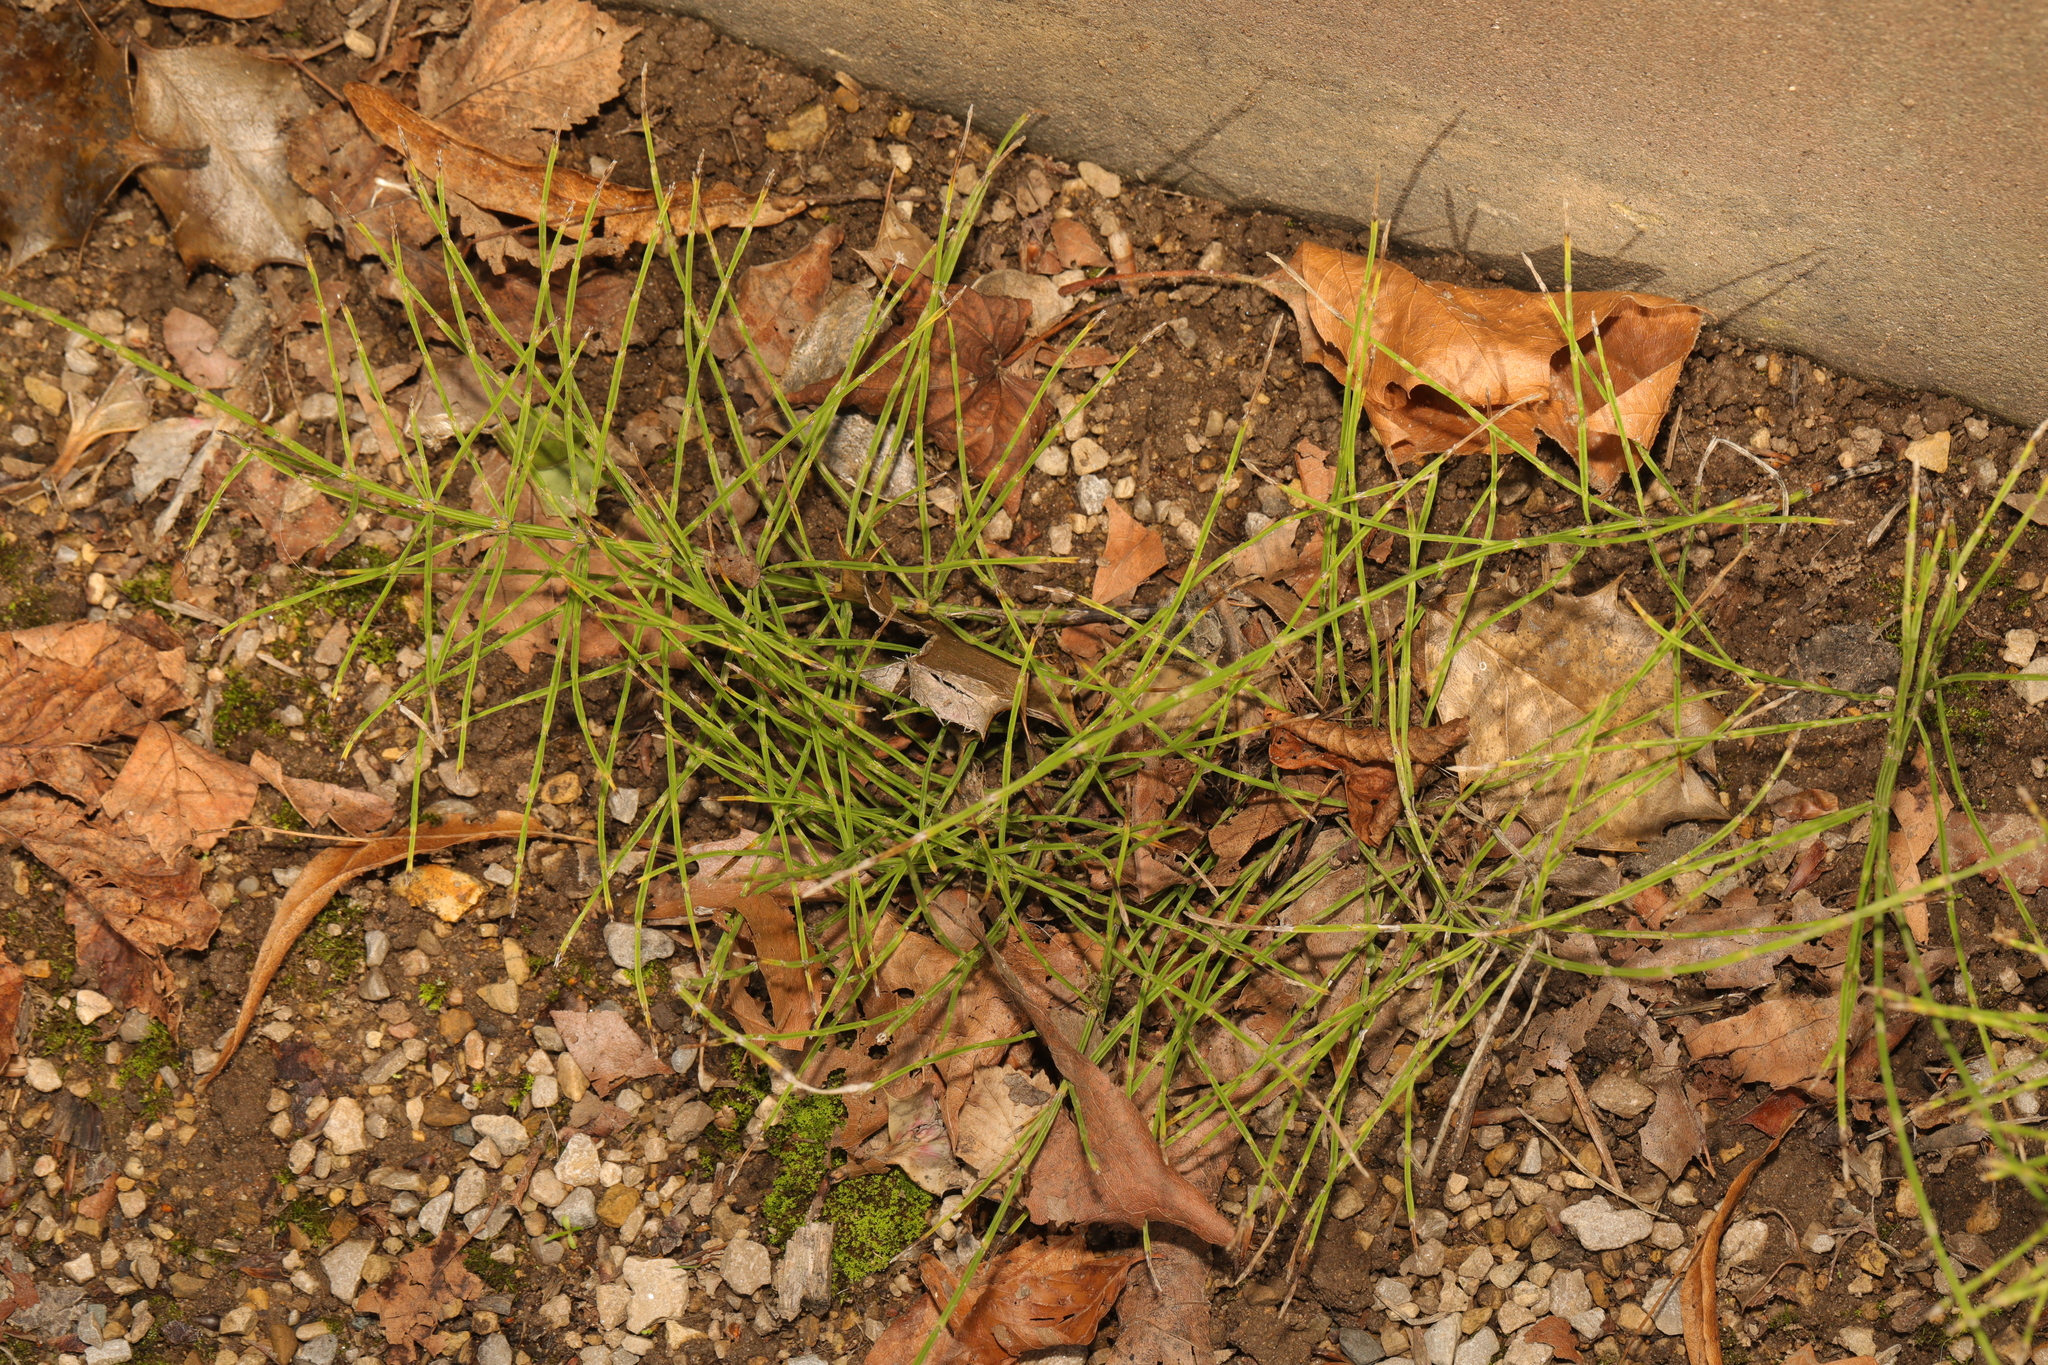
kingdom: Plantae
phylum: Tracheophyta
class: Polypodiopsida
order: Equisetales
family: Equisetaceae
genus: Equisetum
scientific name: Equisetum arvense
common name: Field horsetail
